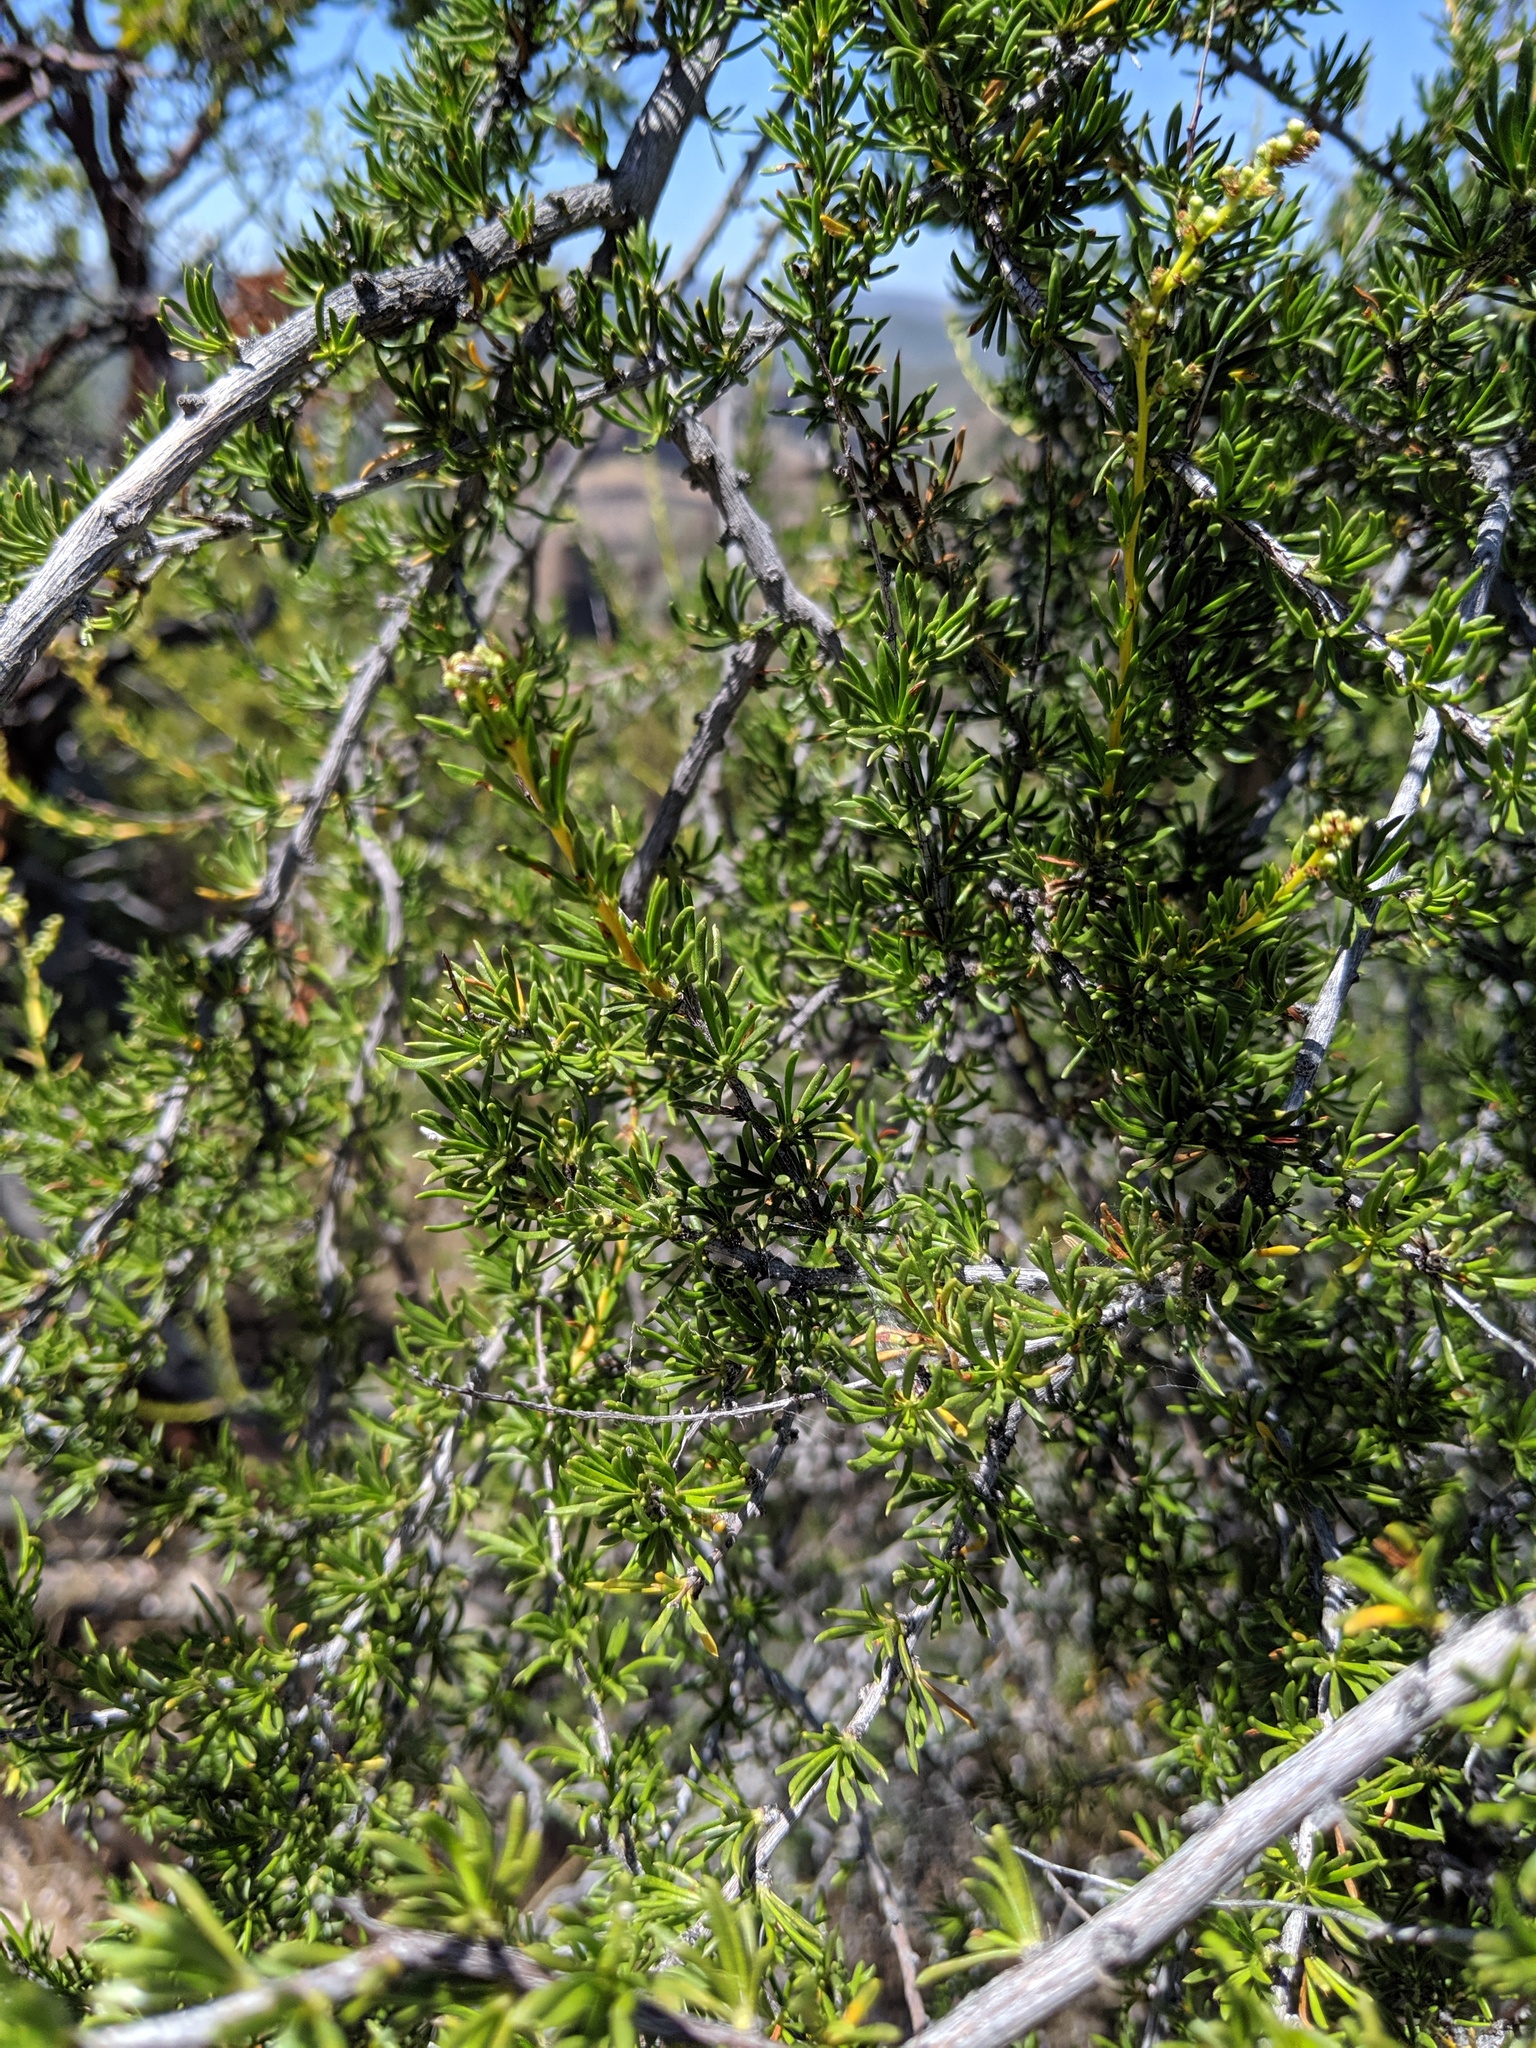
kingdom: Plantae
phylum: Tracheophyta
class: Magnoliopsida
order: Rosales
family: Rosaceae
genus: Adenostoma
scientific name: Adenostoma fasciculatum
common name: Chamise
